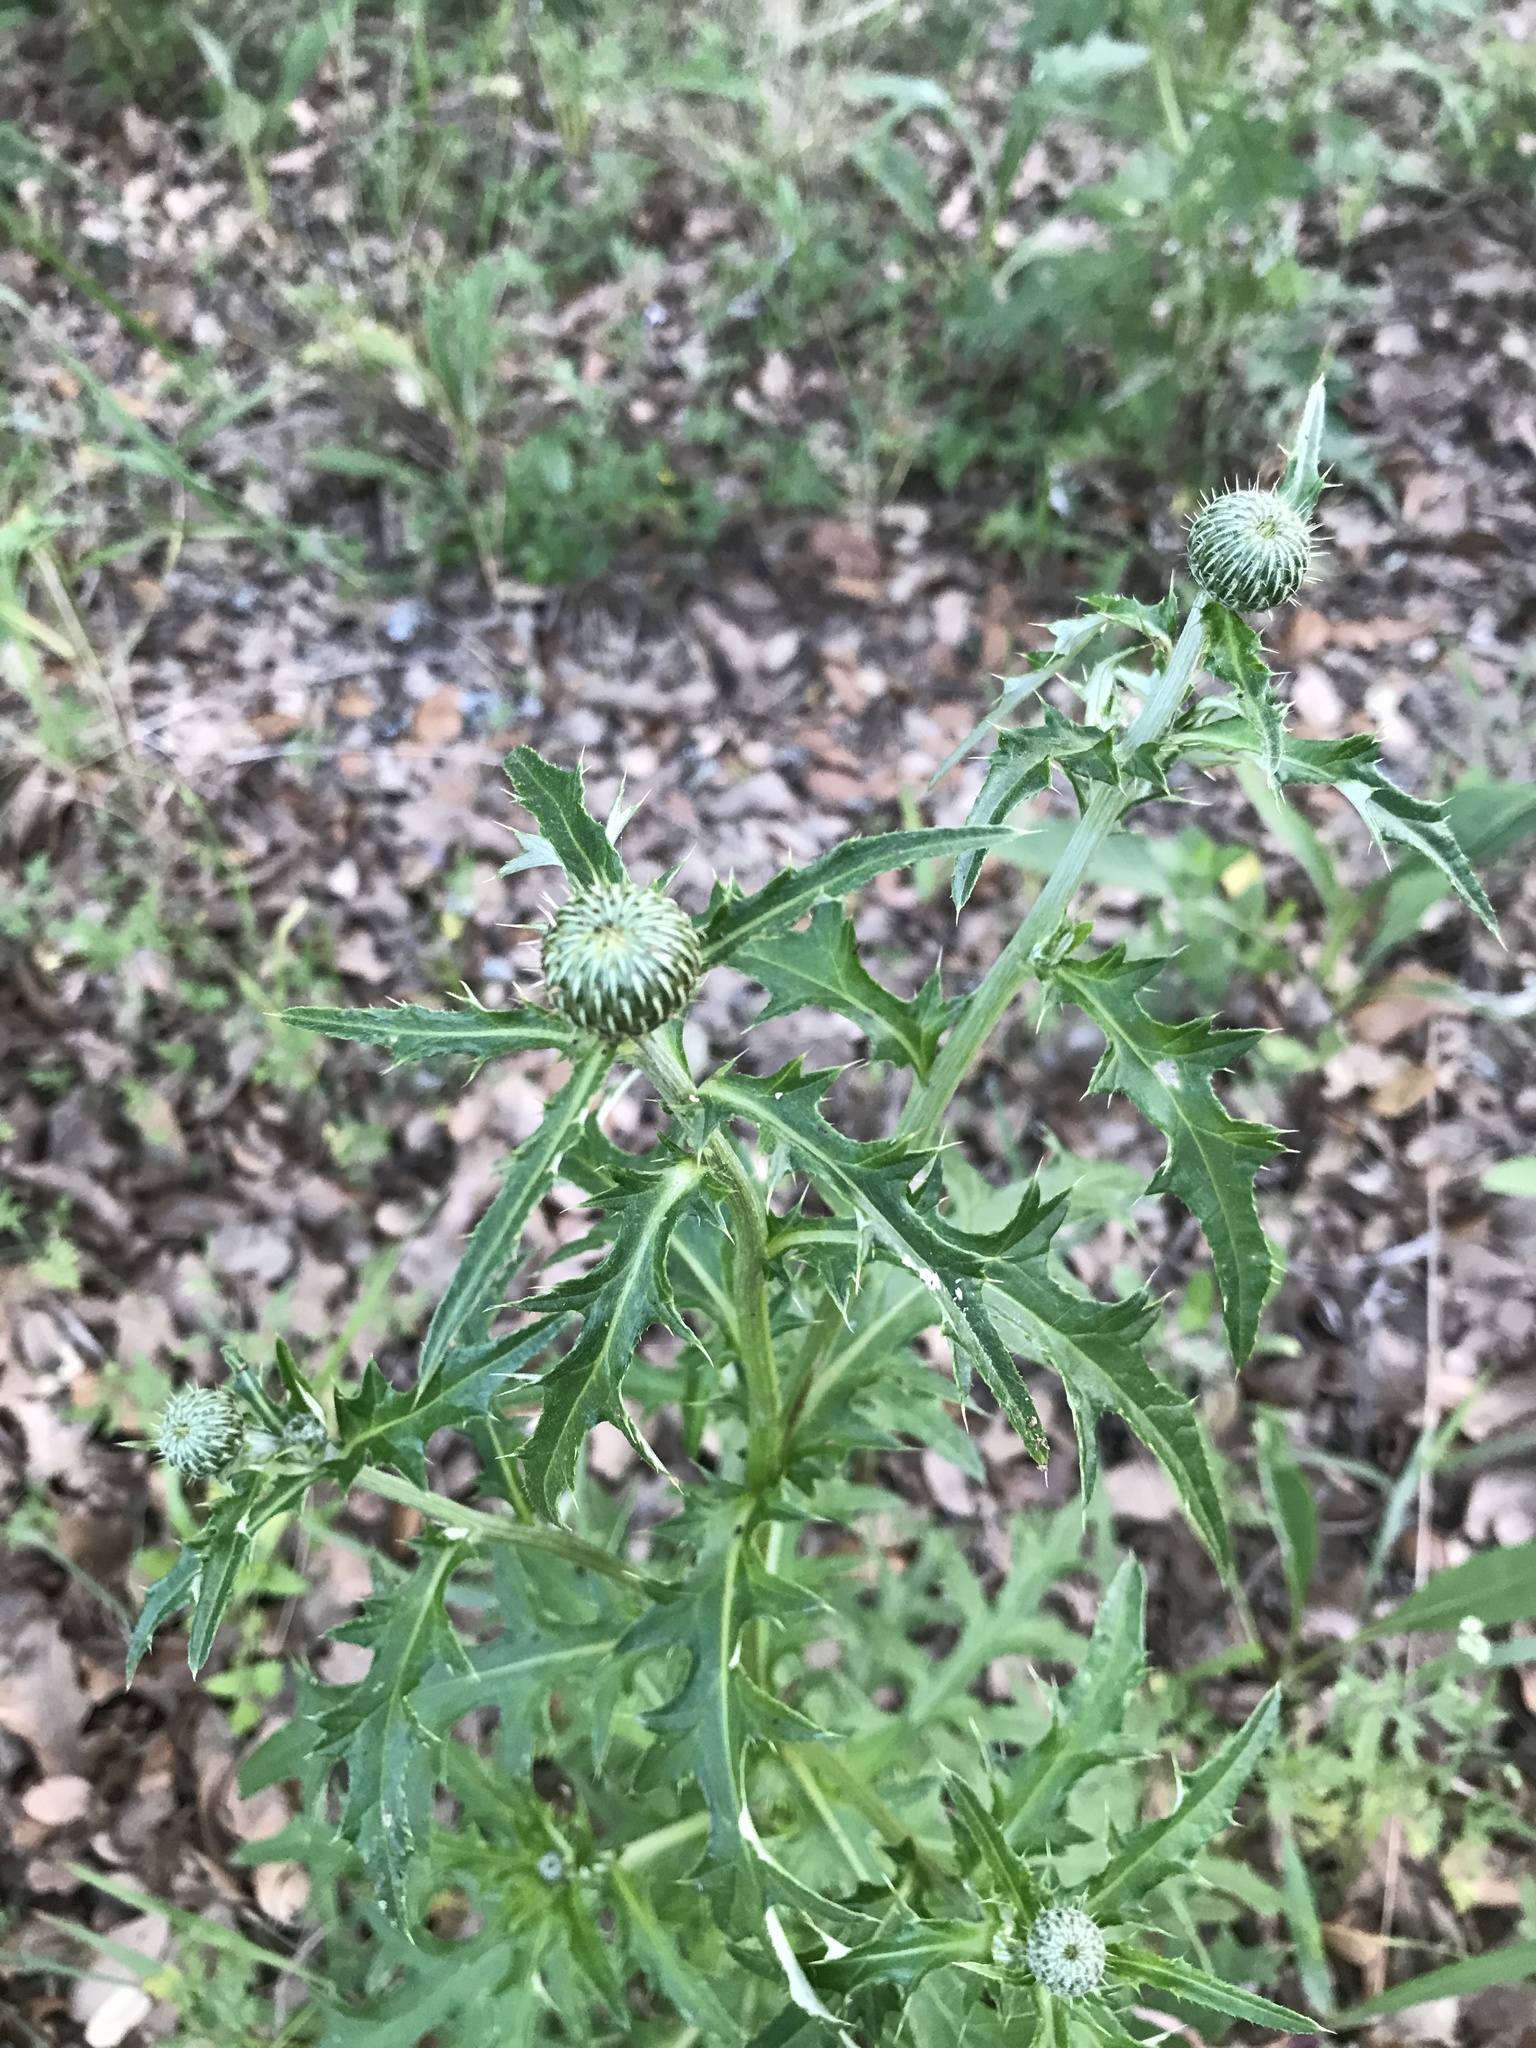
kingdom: Plantae
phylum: Tracheophyta
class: Magnoliopsida
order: Asterales
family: Asteraceae
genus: Cirsium
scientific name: Cirsium texanum
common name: Texas purple thistle
